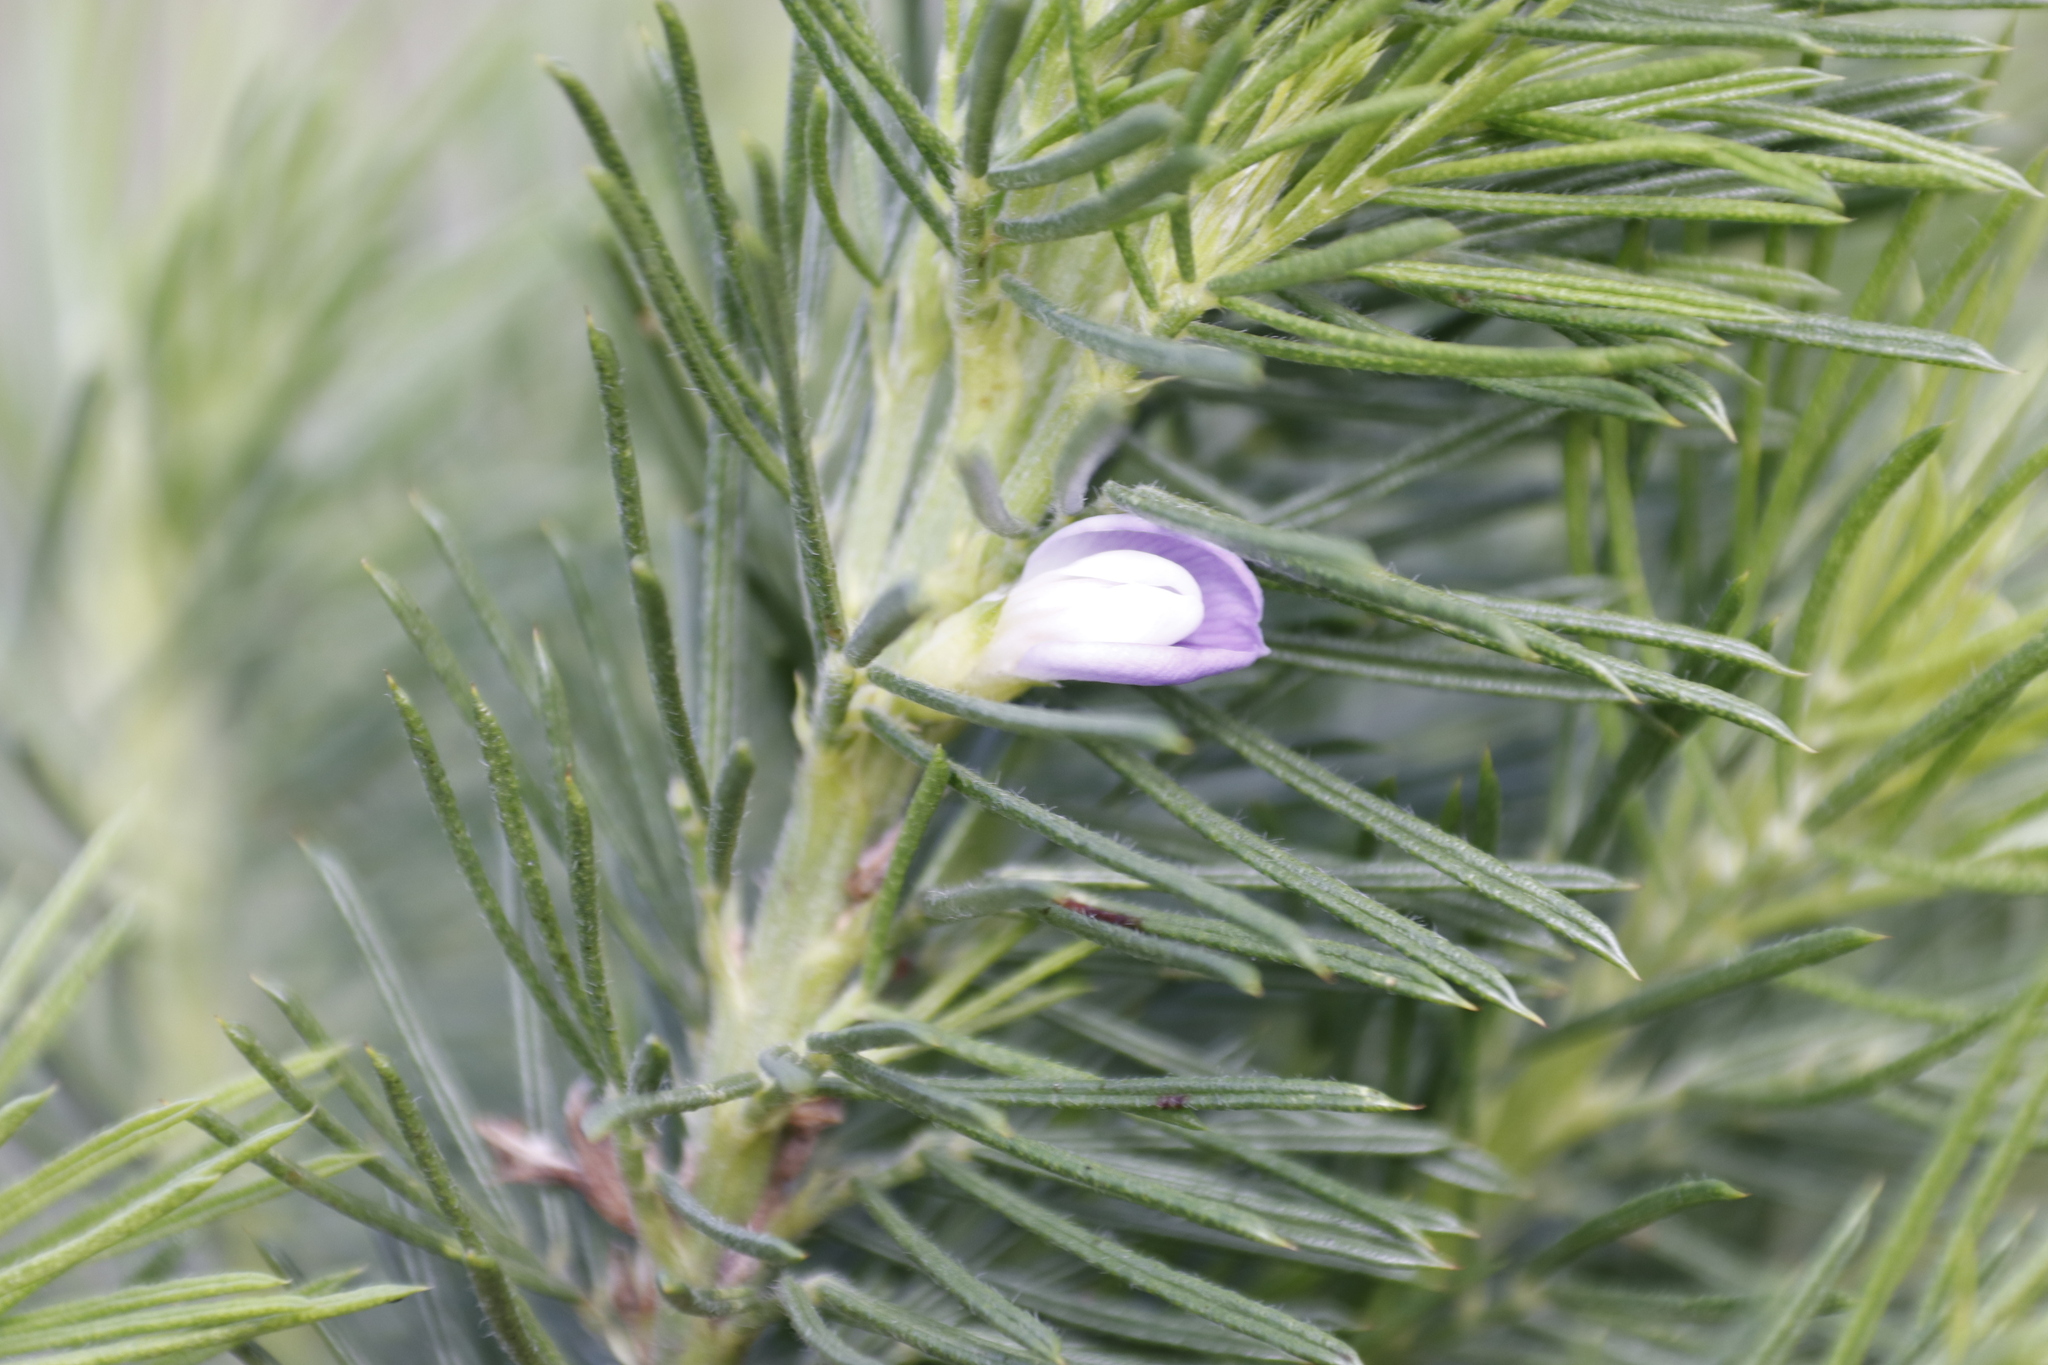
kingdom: Plantae
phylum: Tracheophyta
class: Magnoliopsida
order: Fabales
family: Fabaceae
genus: Psoralea
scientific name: Psoralea pinnata
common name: African scurfpea
